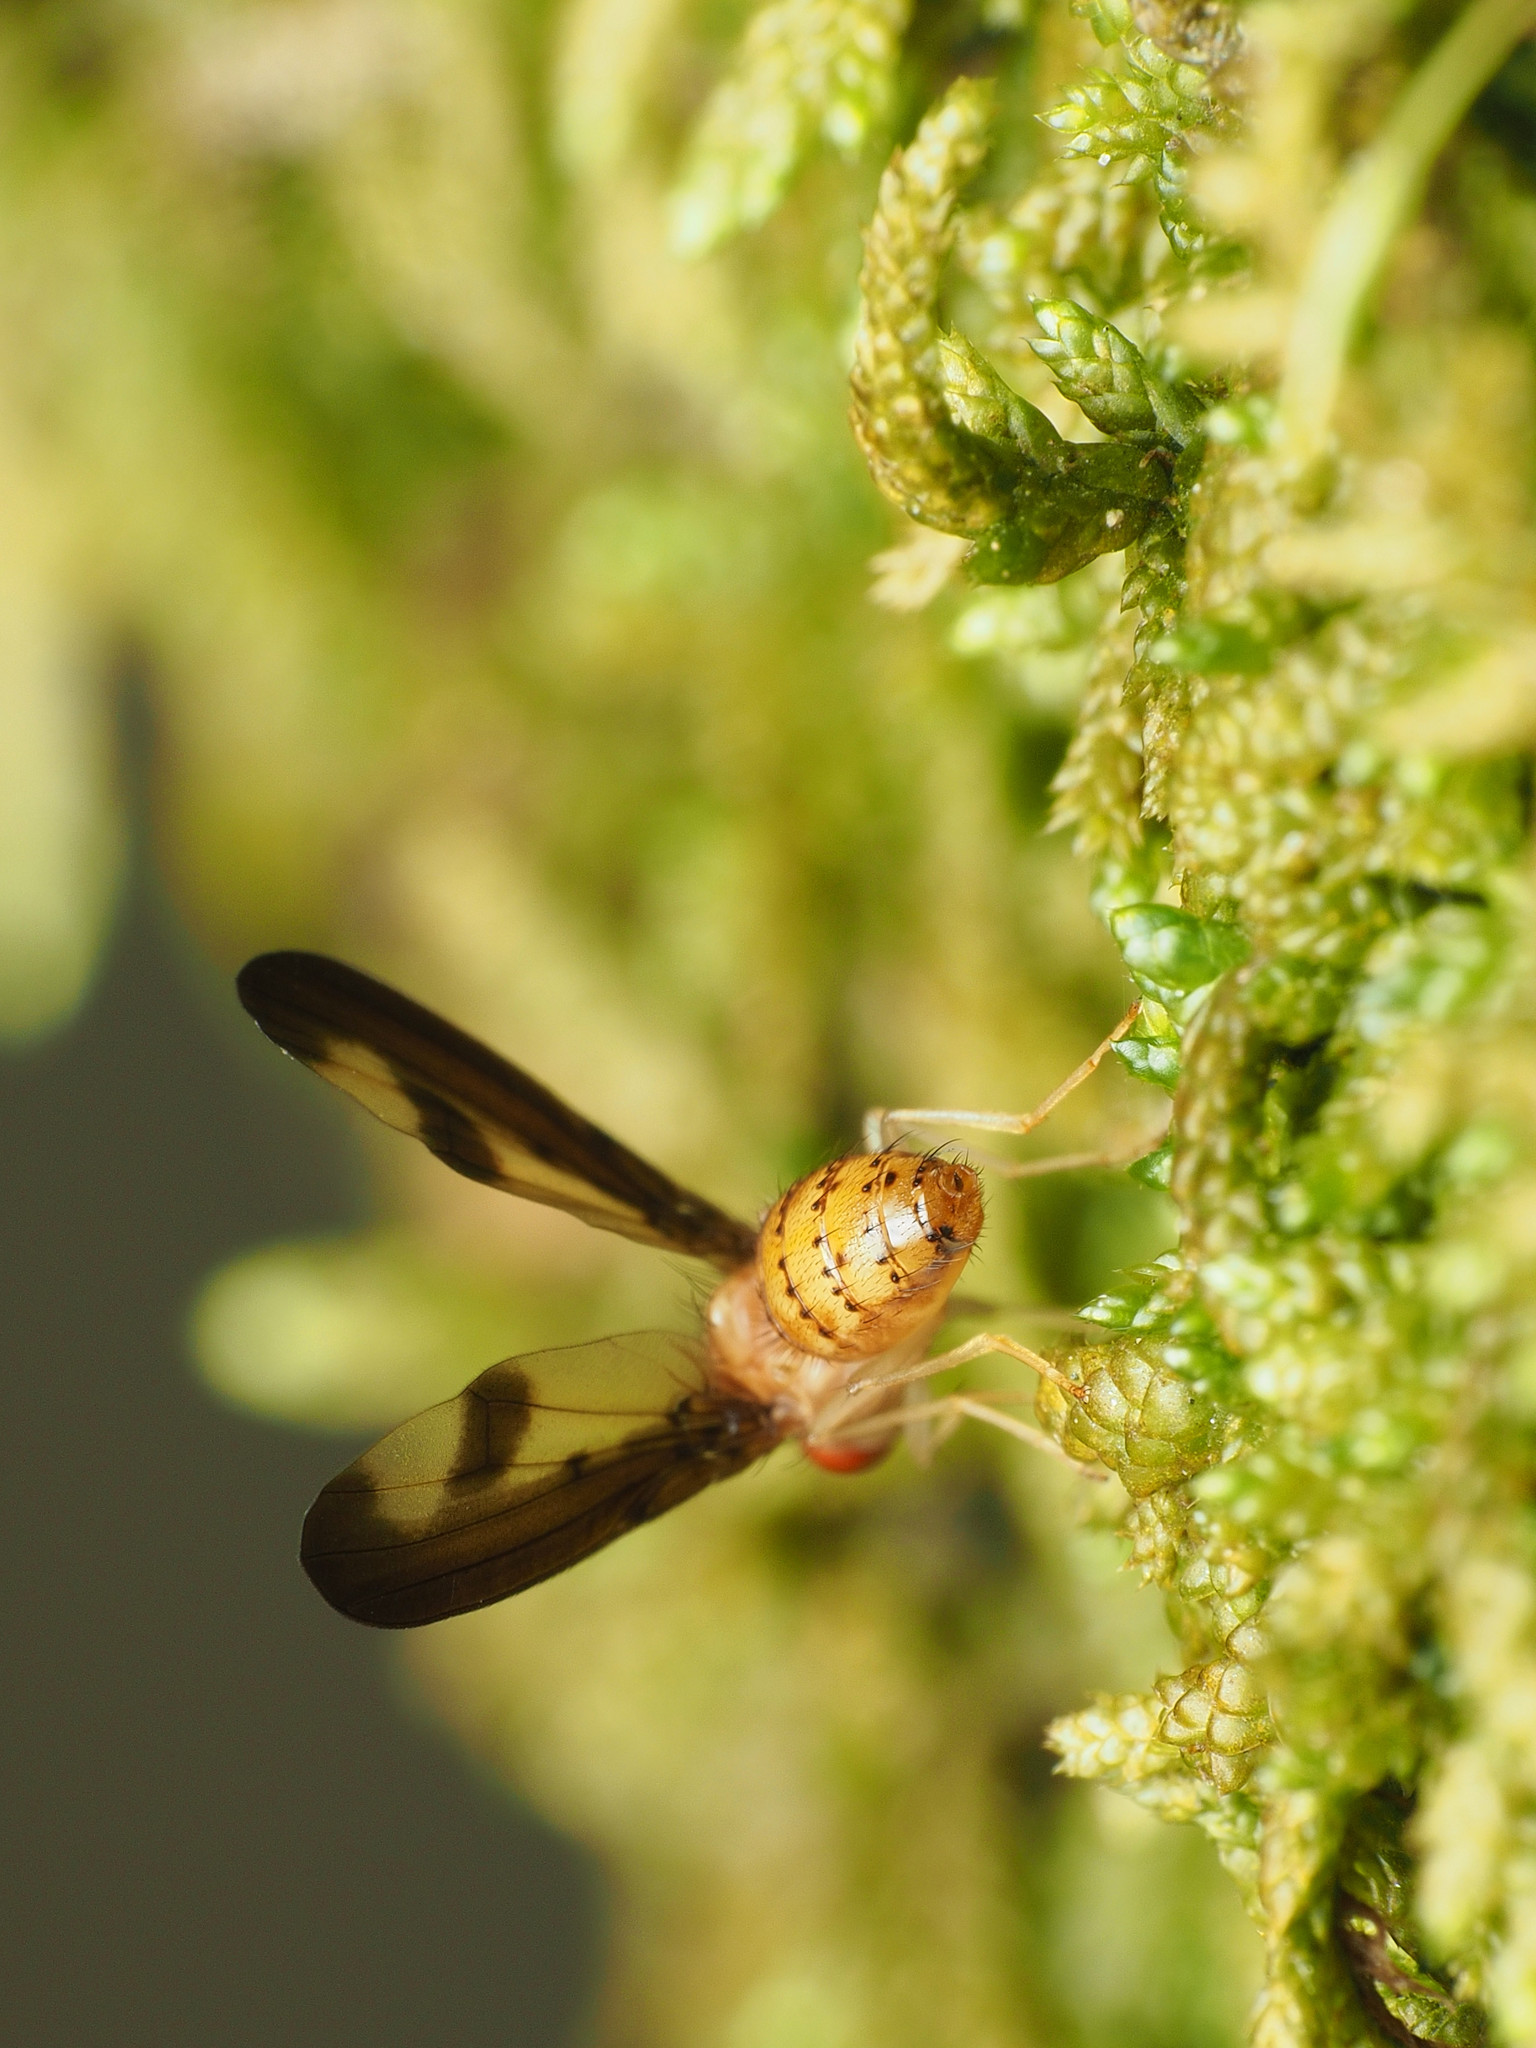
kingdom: Animalia
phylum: Arthropoda
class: Insecta
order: Diptera
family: Pallopteridae
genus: Toxonevra
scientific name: Toxonevra superba
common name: Antlered flutter fly
